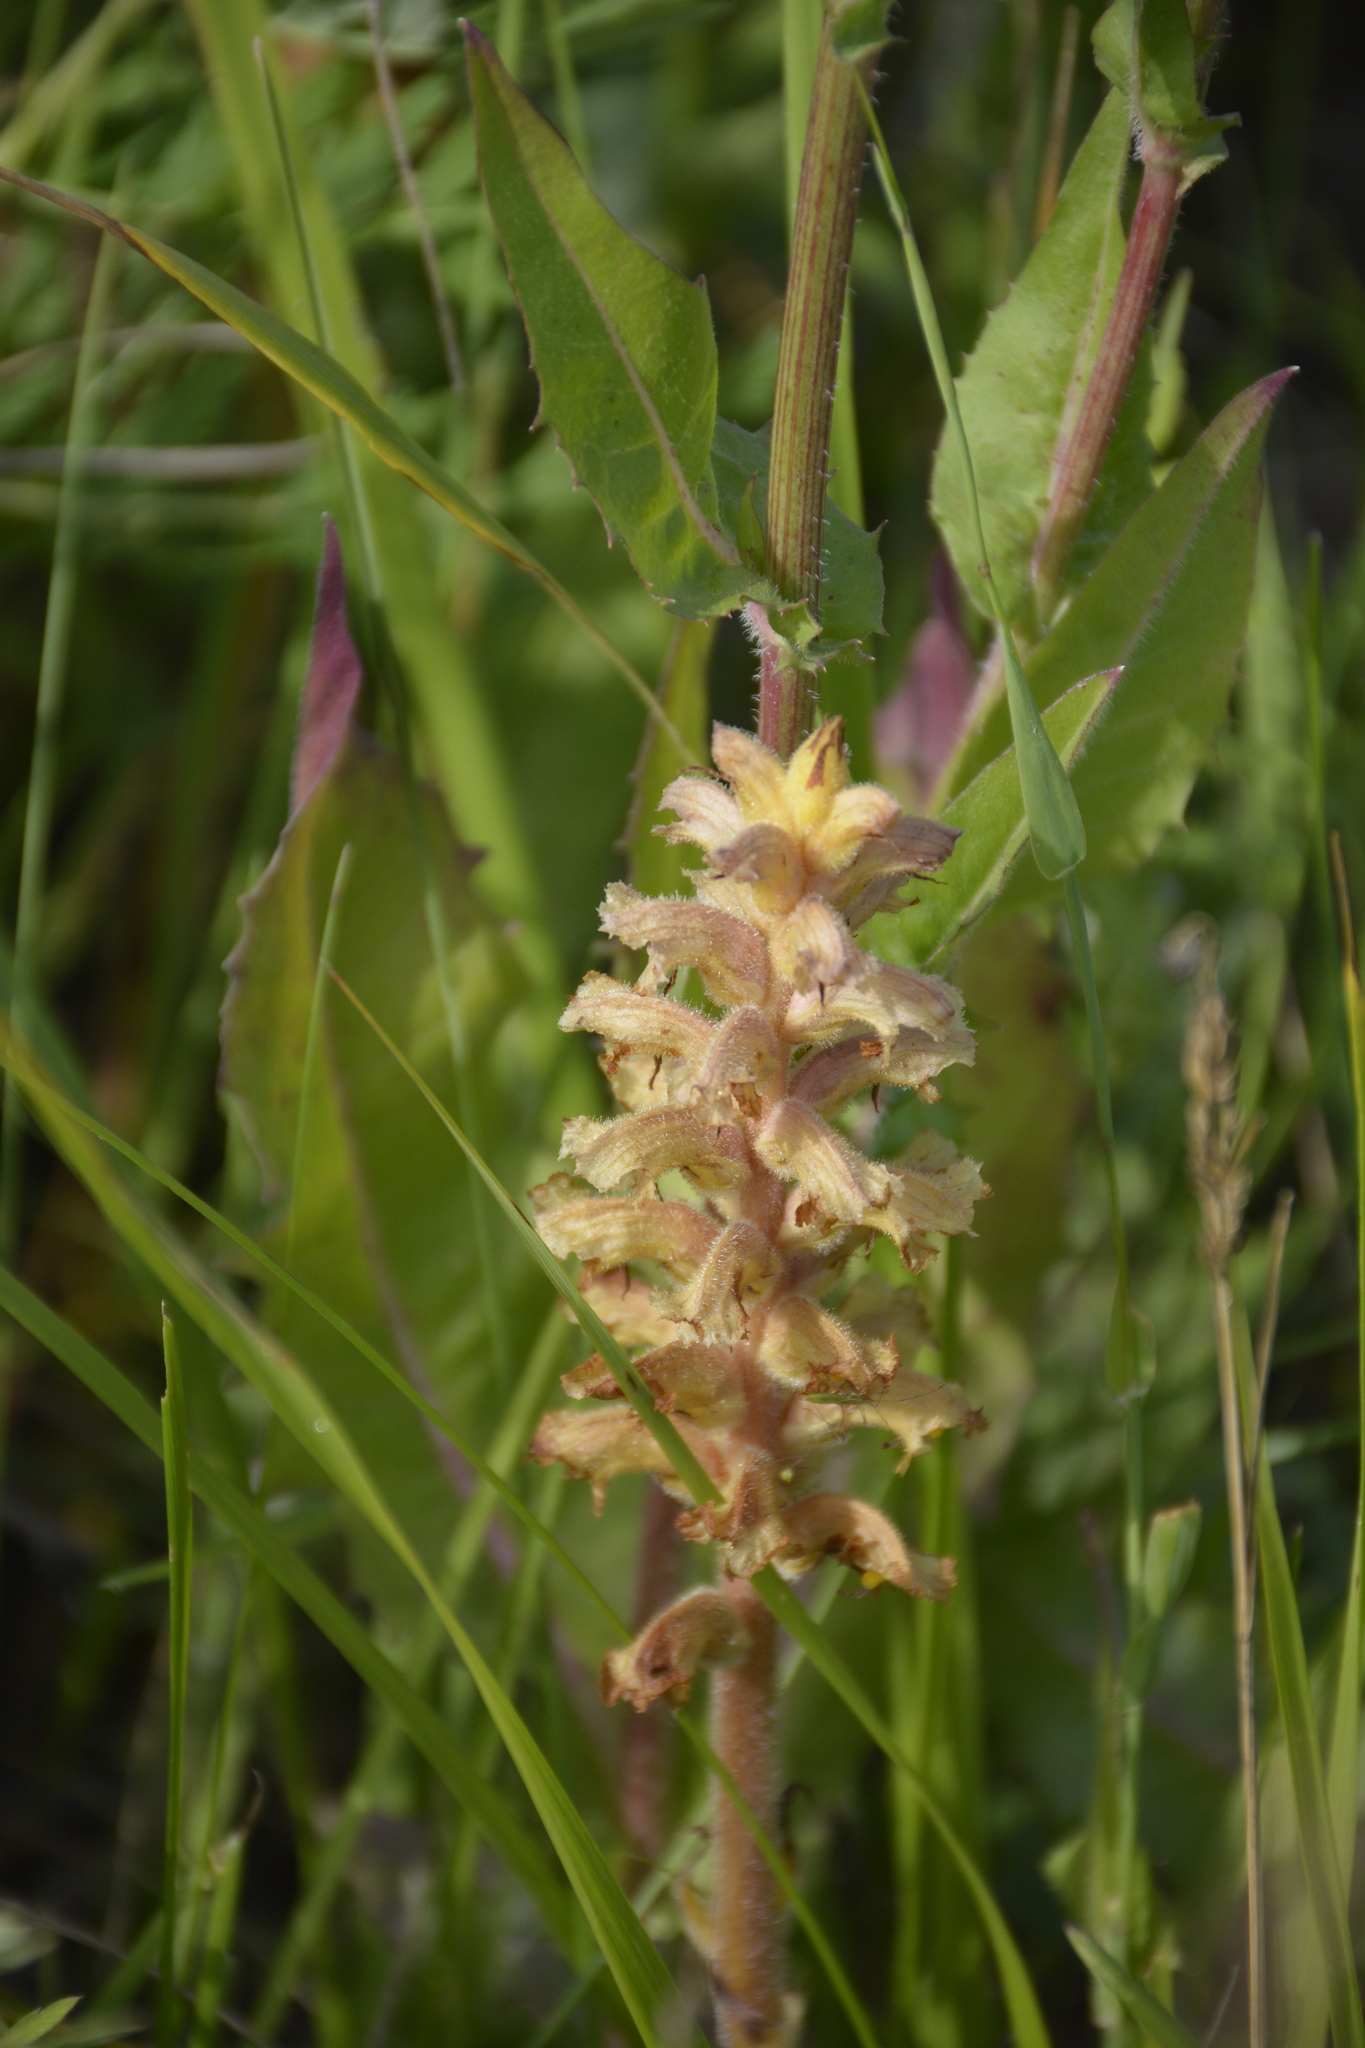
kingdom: Plantae
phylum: Tracheophyta
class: Magnoliopsida
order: Lamiales
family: Orobanchaceae
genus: Orobanche
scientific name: Orobanche alsatica
